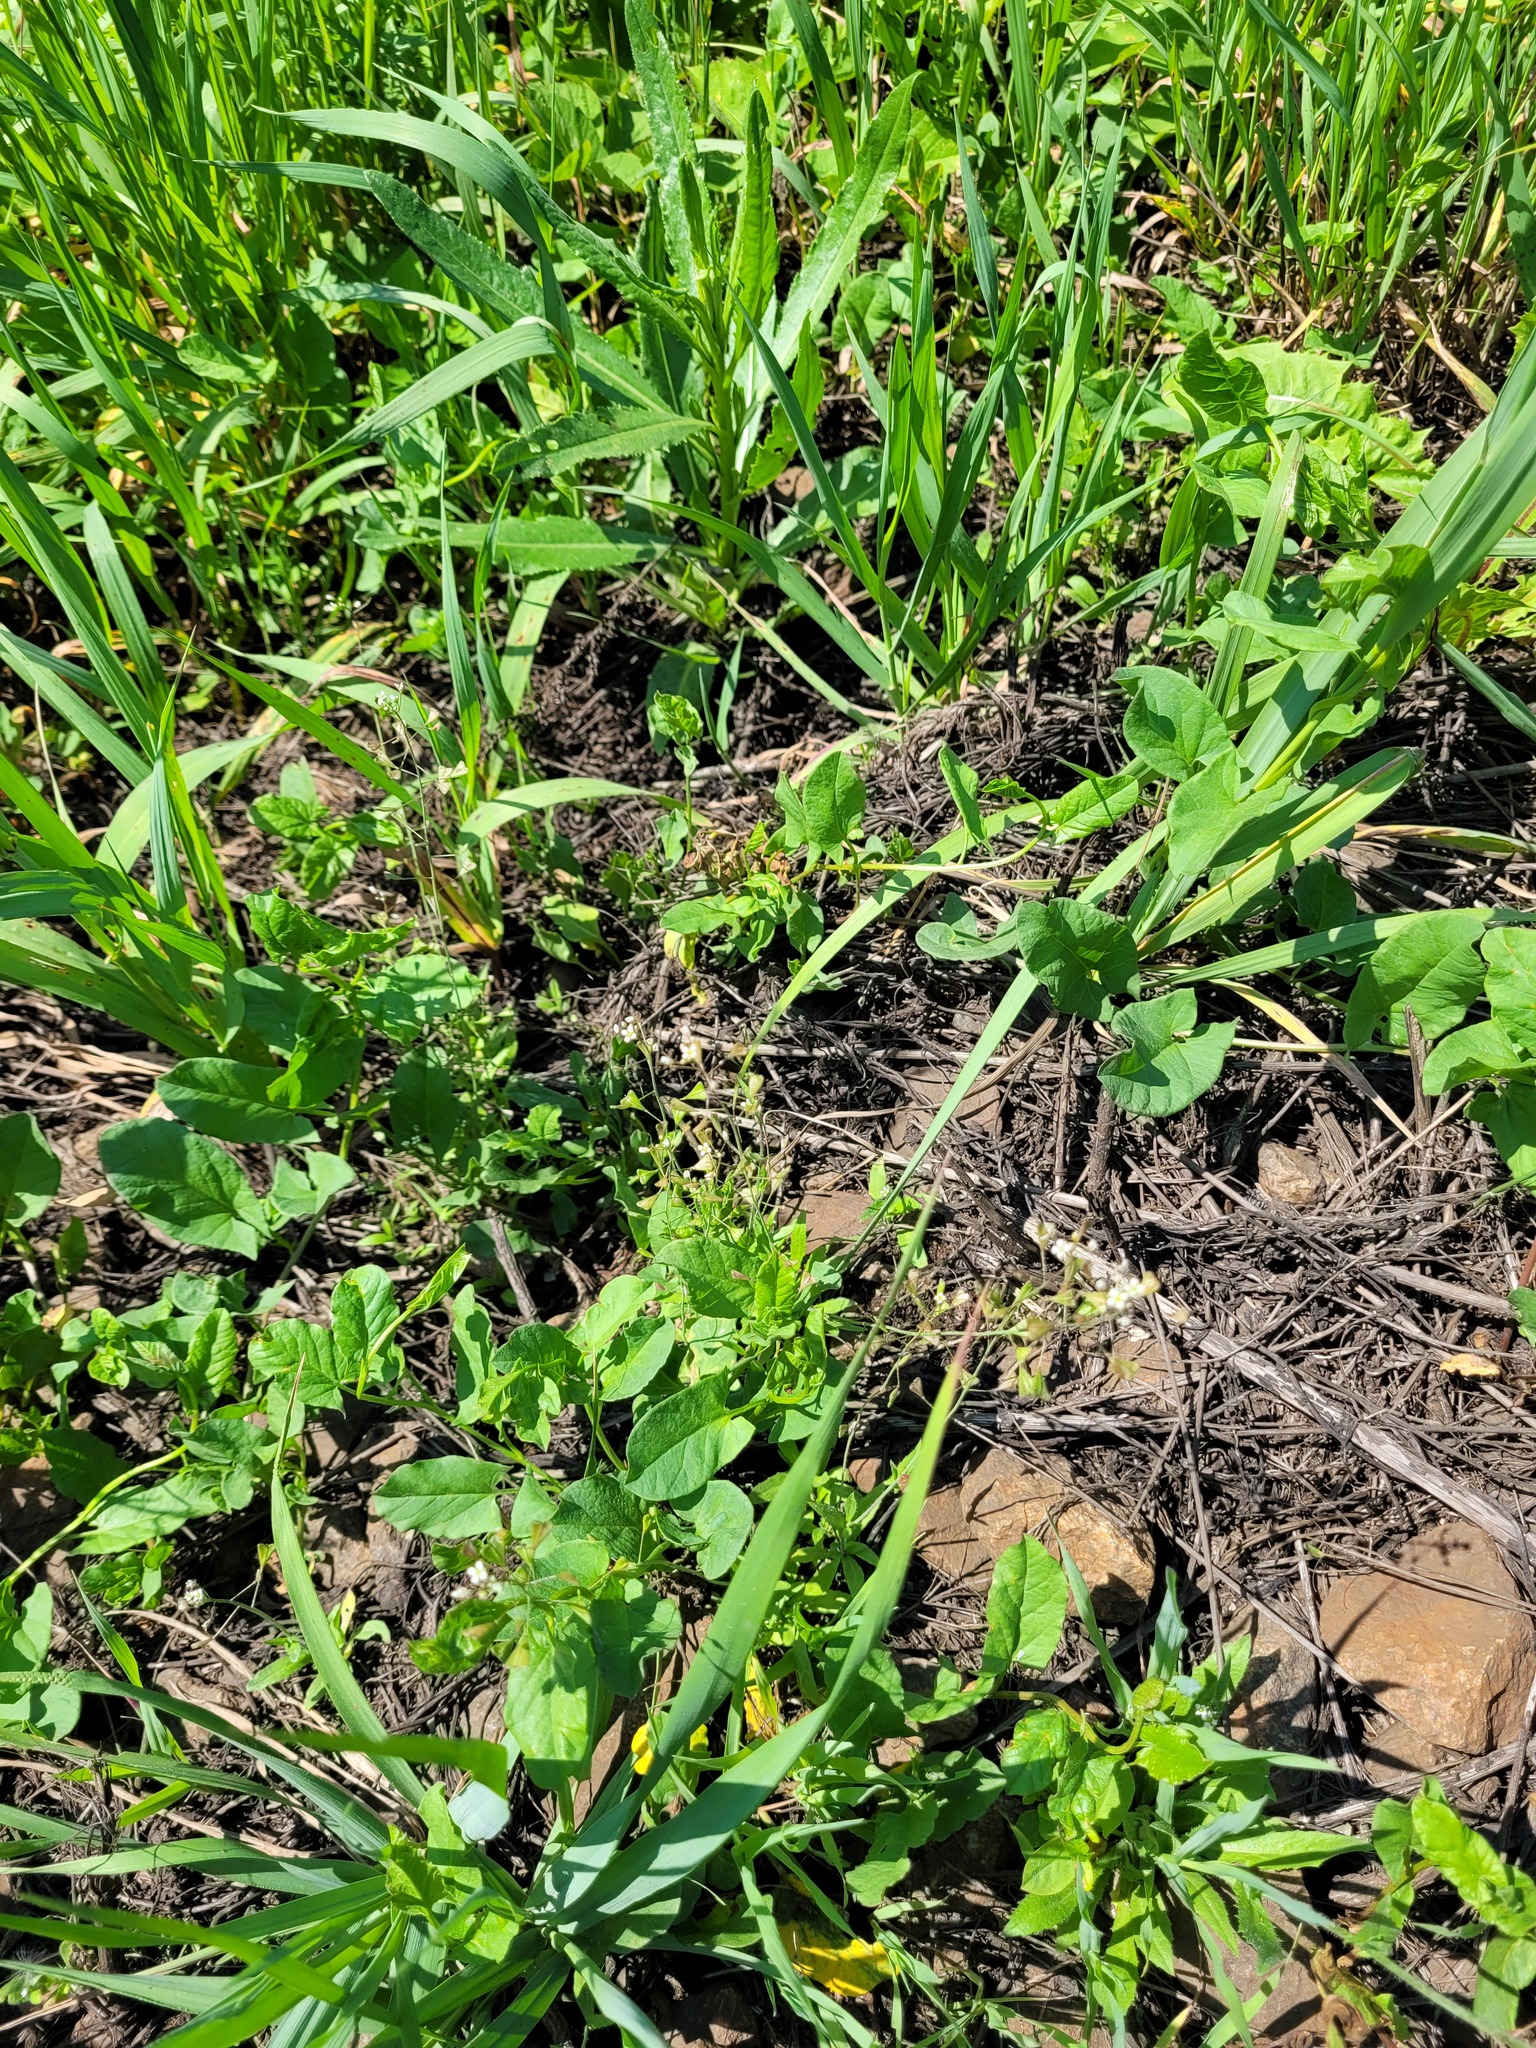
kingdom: Plantae
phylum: Tracheophyta
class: Magnoliopsida
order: Brassicales
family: Brassicaceae
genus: Capsella
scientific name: Capsella bursa-pastoris
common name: Shepherd's purse
